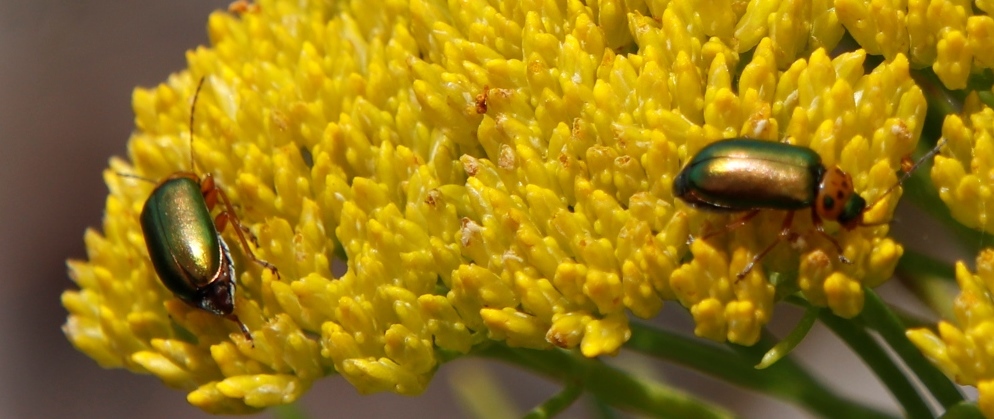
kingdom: Plantae
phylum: Tracheophyta
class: Magnoliopsida
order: Asterales
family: Asteraceae
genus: Hymenolepis
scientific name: Hymenolepis crithmifolia
